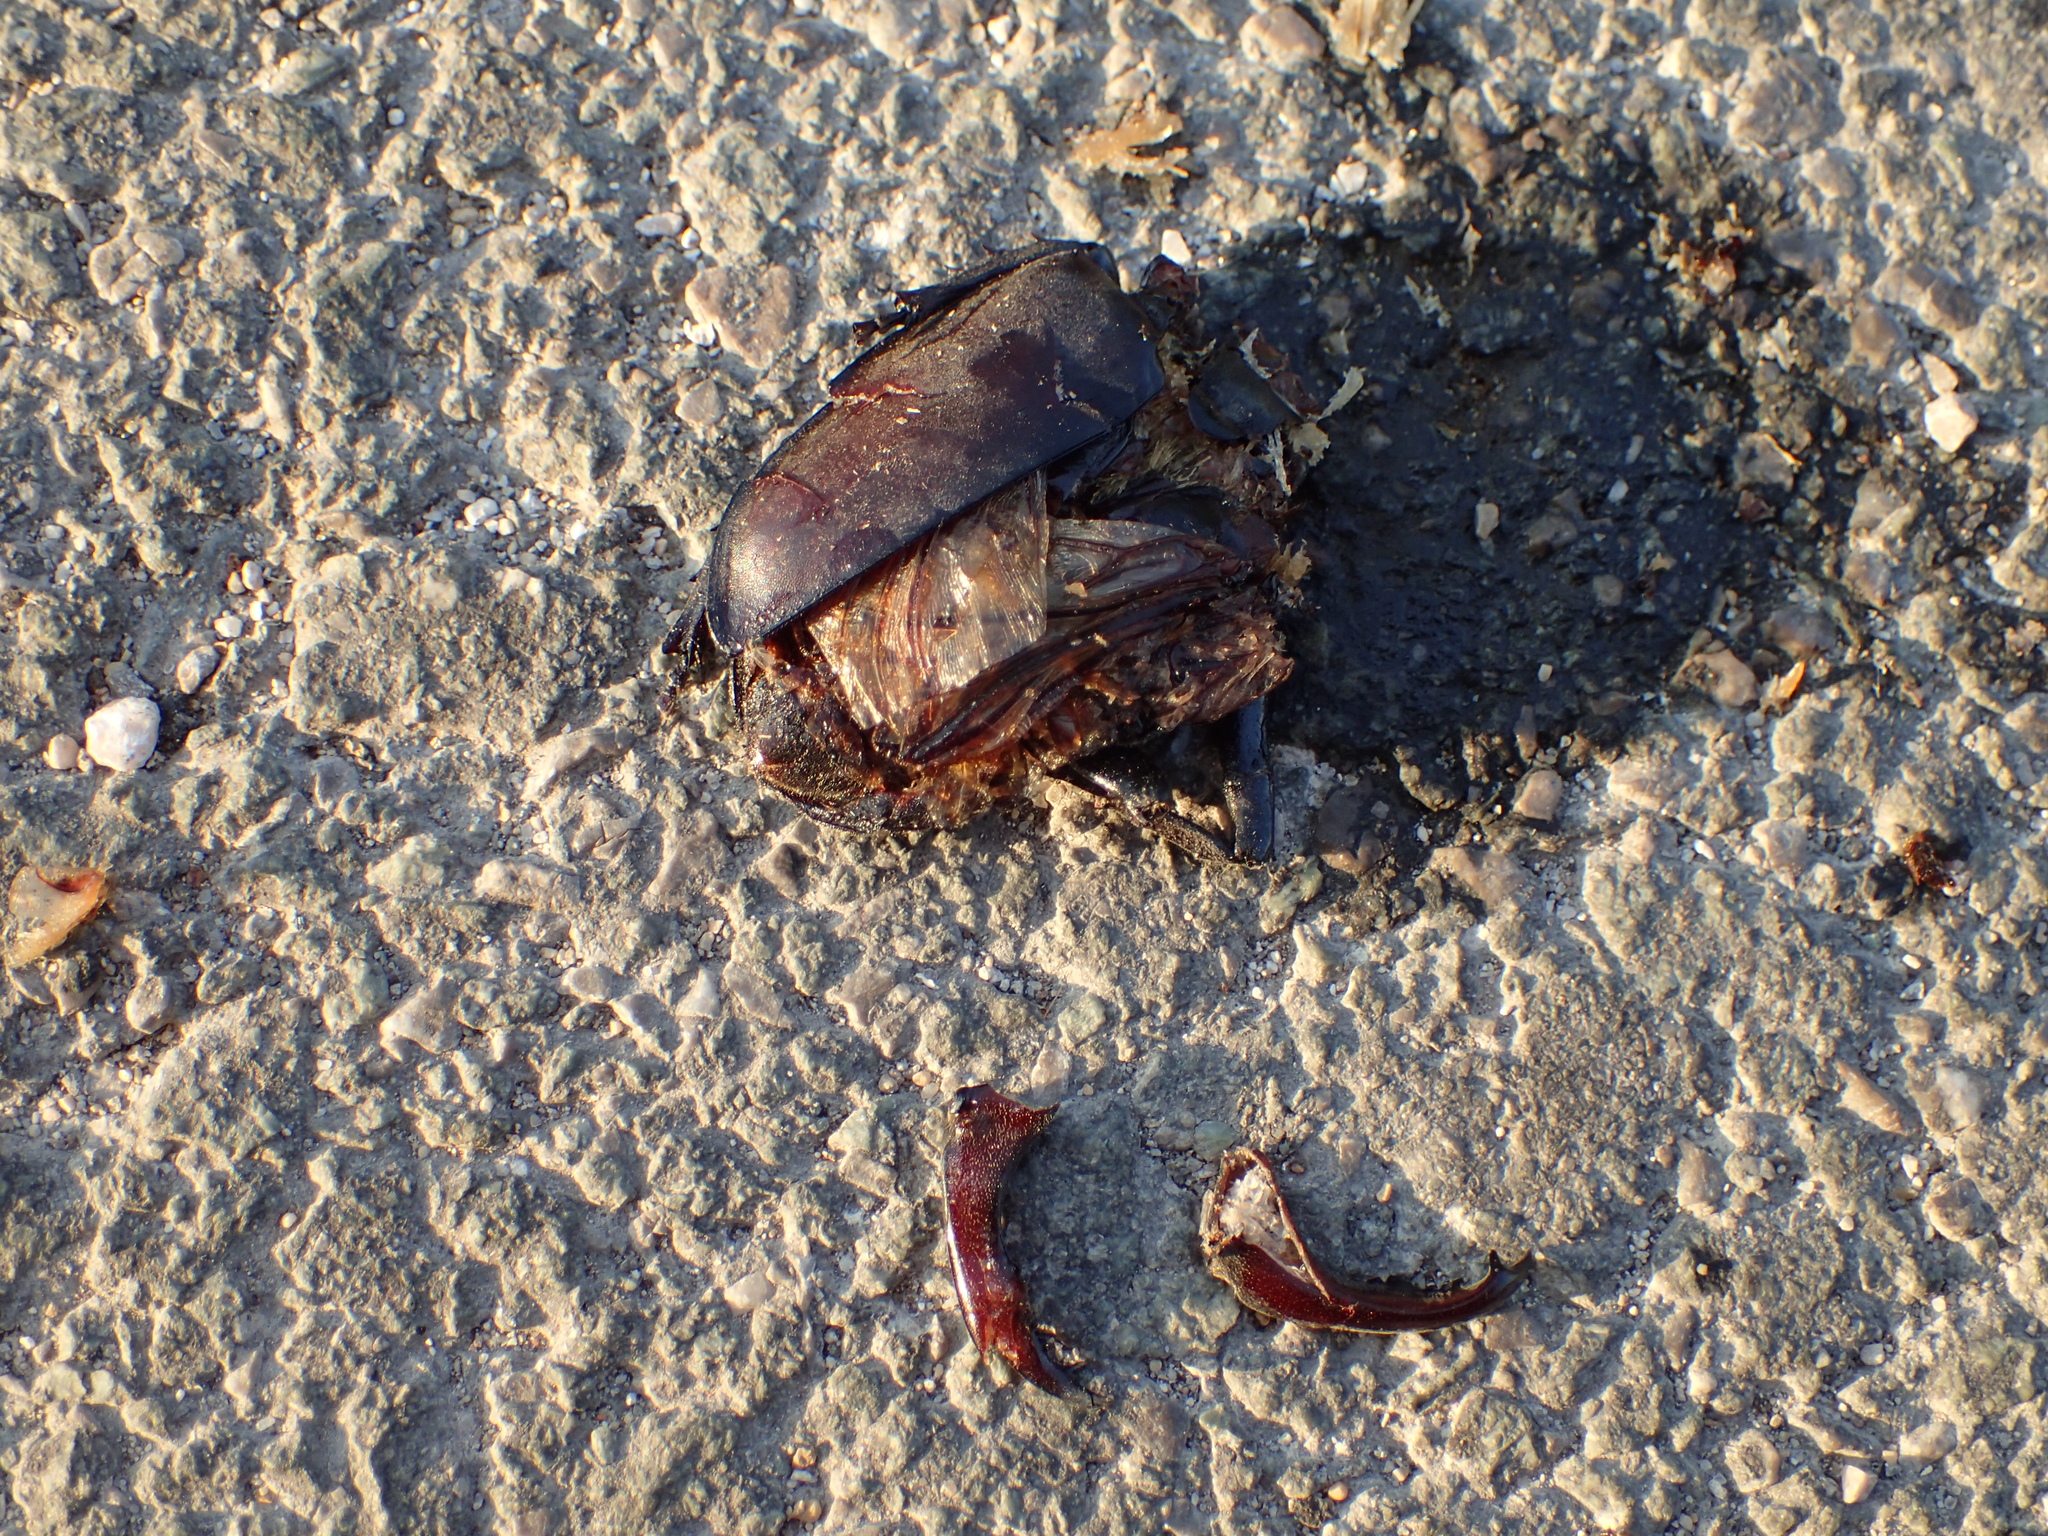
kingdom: Animalia
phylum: Arthropoda
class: Insecta
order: Coleoptera
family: Lucanidae
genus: Lucanus
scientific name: Lucanus cervus
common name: Stag beetle
